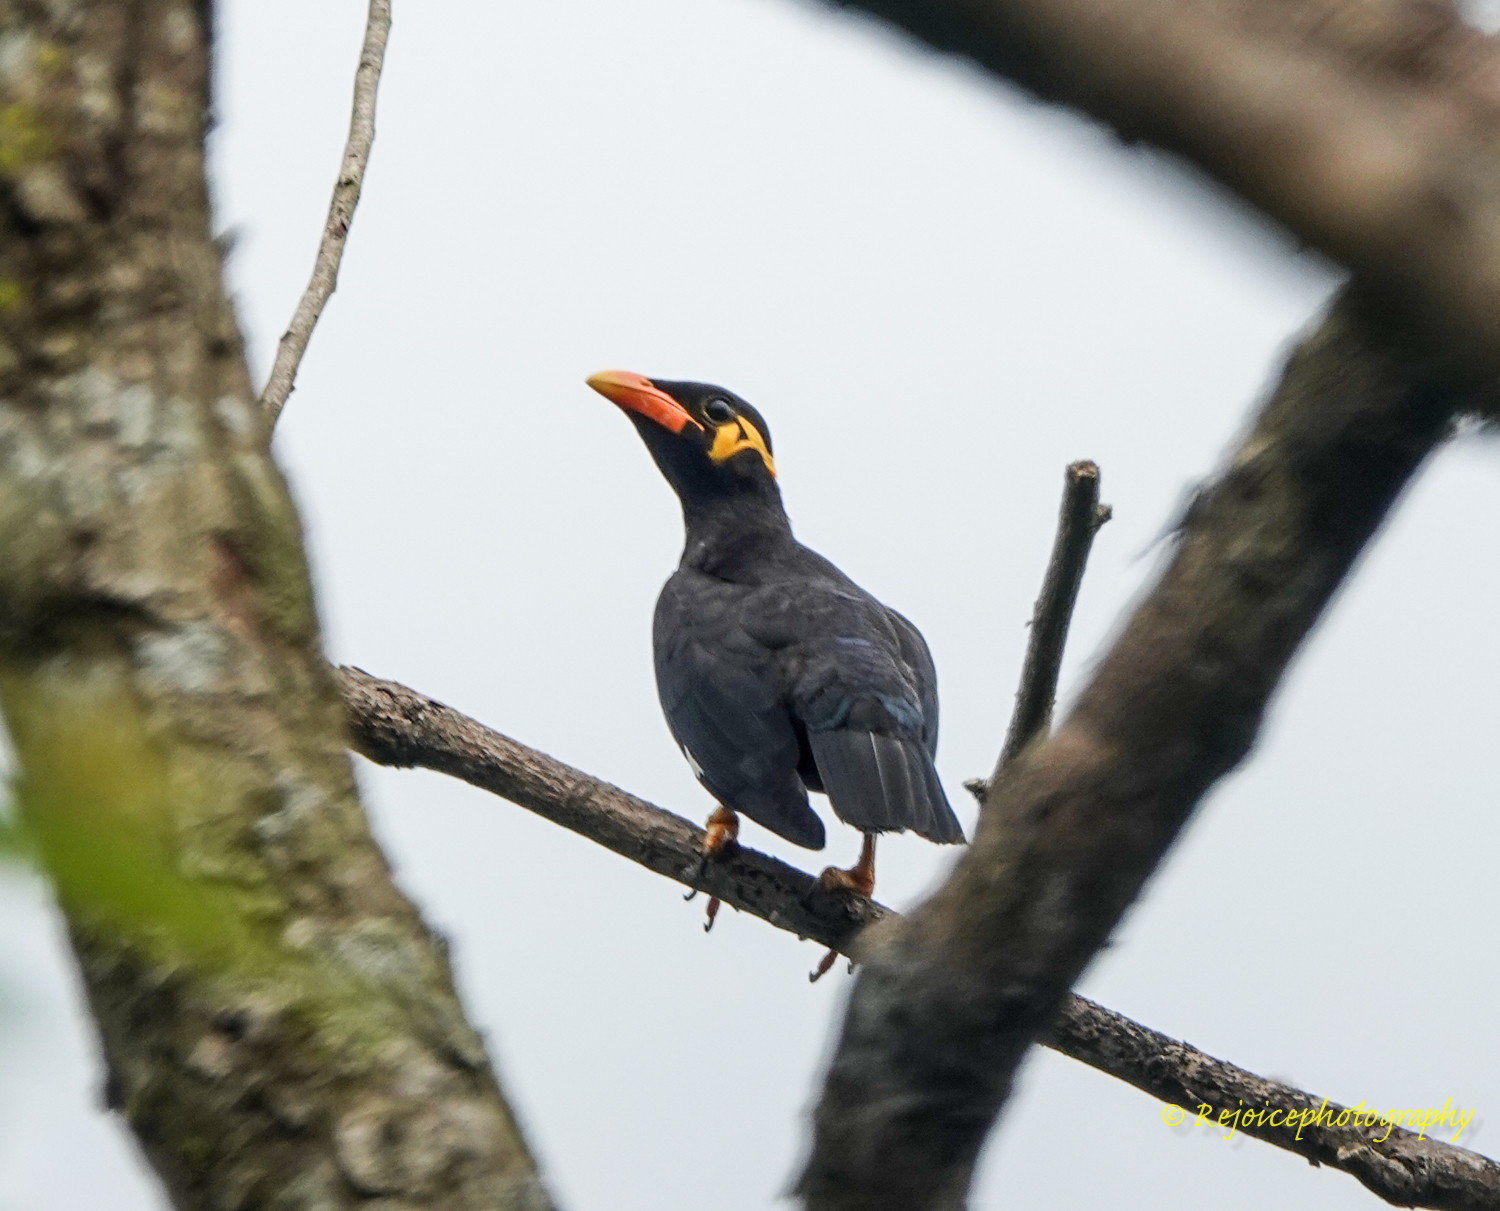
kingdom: Animalia
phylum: Chordata
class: Aves
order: Passeriformes
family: Sturnidae
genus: Gracula
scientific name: Gracula religiosa
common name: Common hill myna
